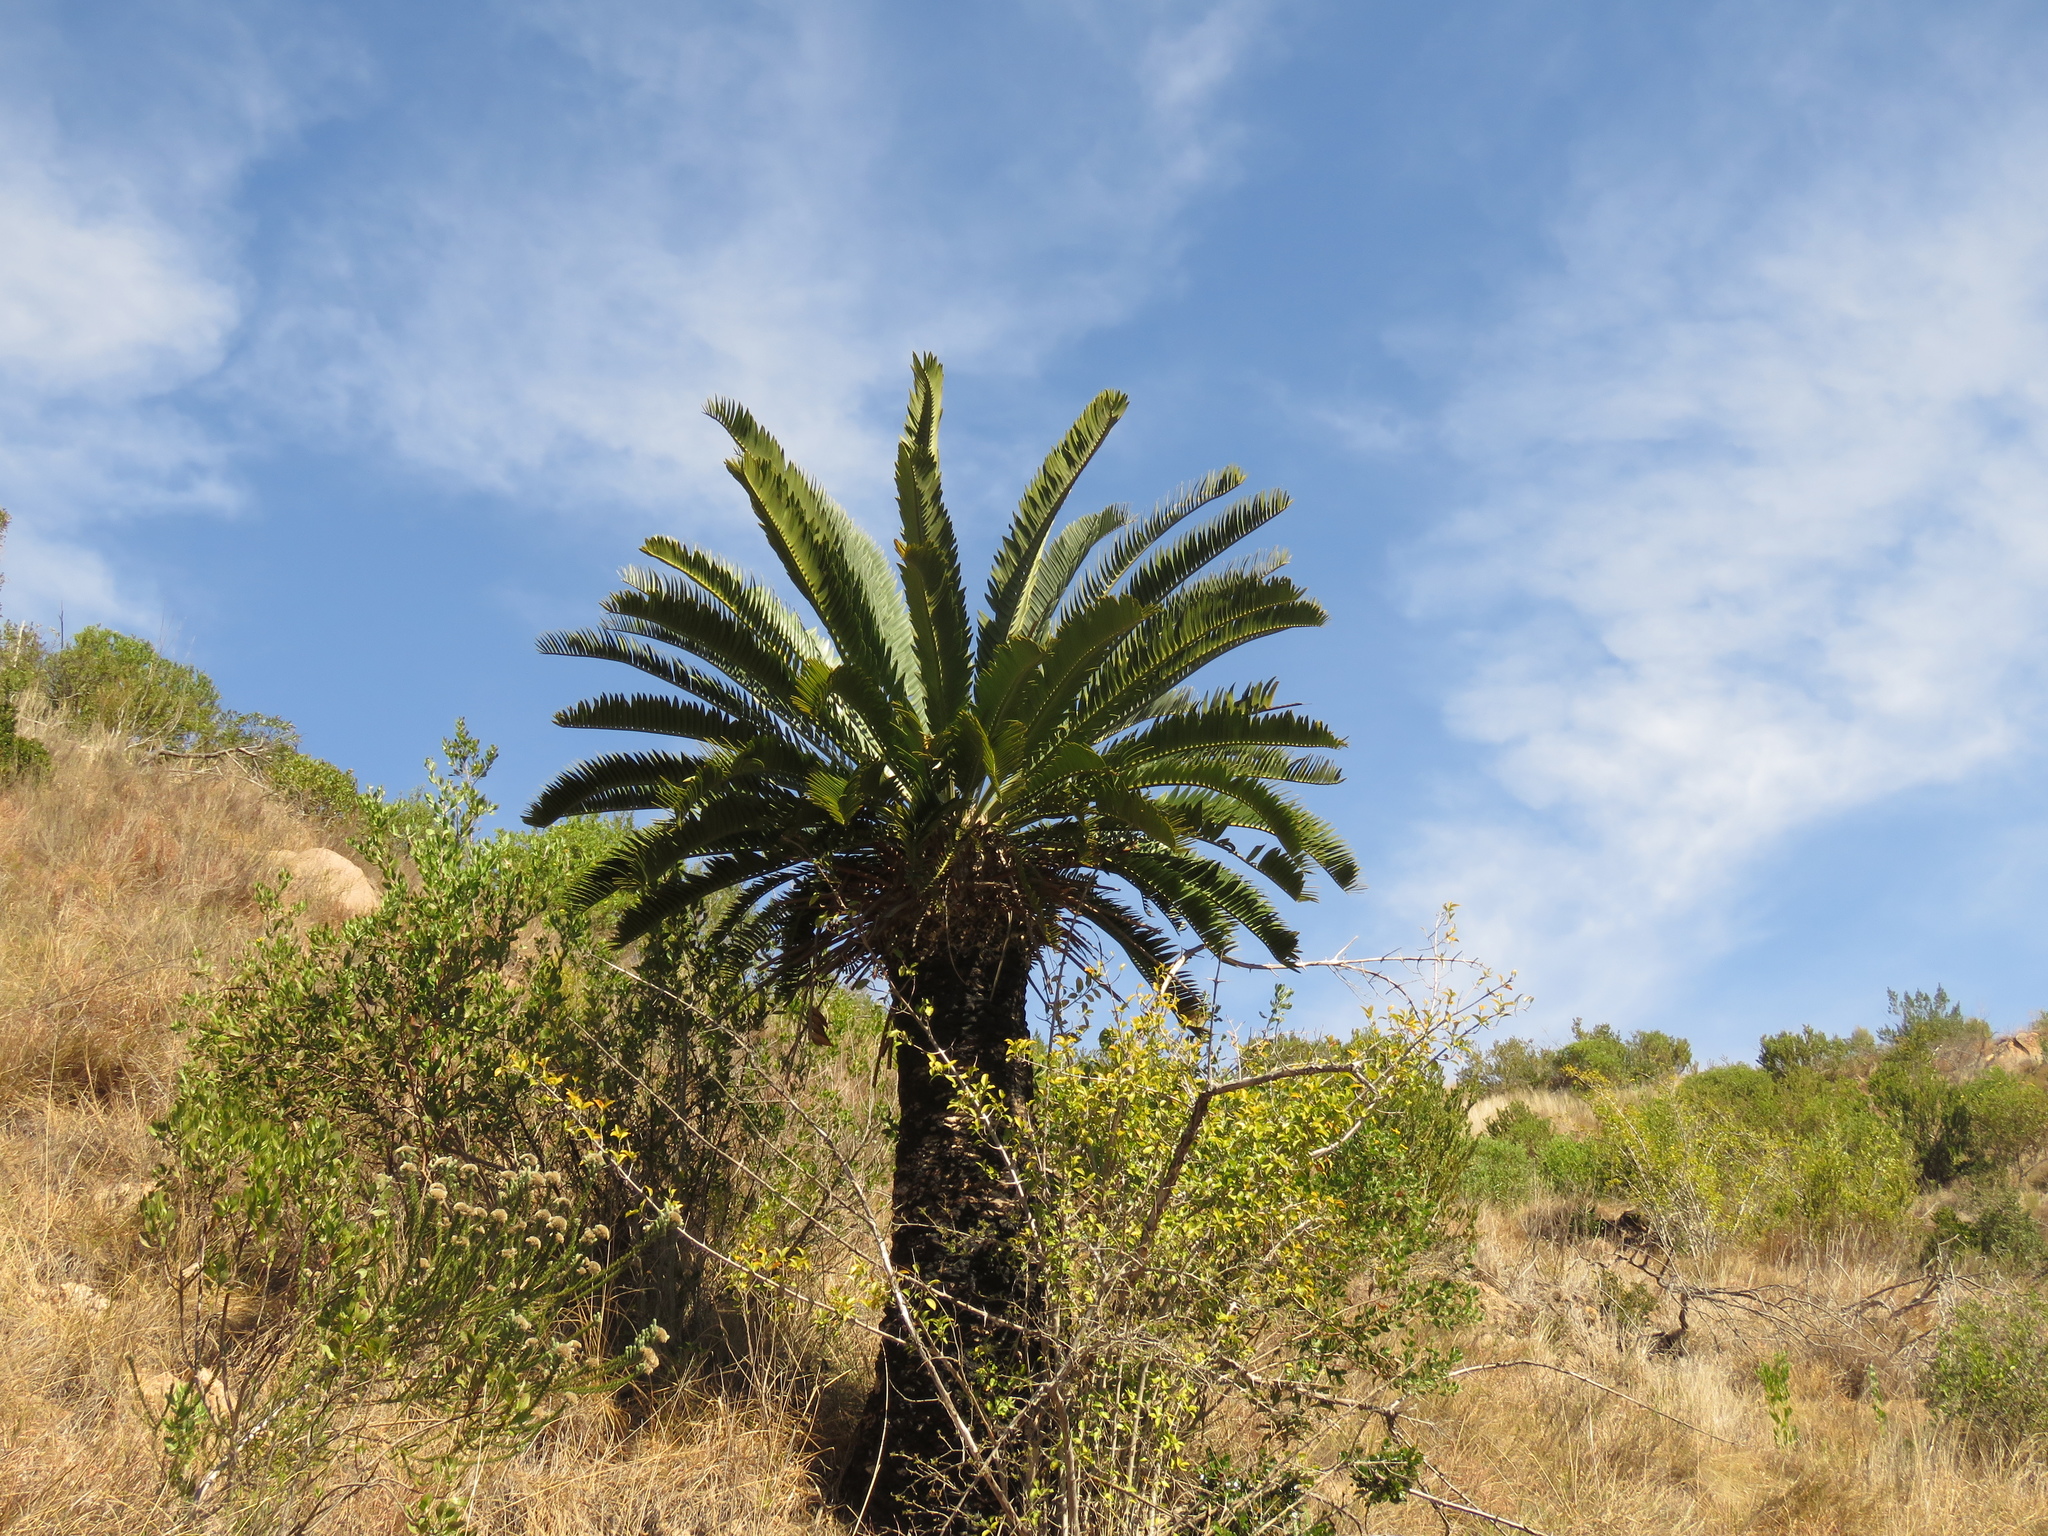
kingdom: Plantae
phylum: Tracheophyta
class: Cycadopsida
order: Cycadales
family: Zamiaceae
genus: Encephalartos
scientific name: Encephalartos longifolius
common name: Suurberg cycad
